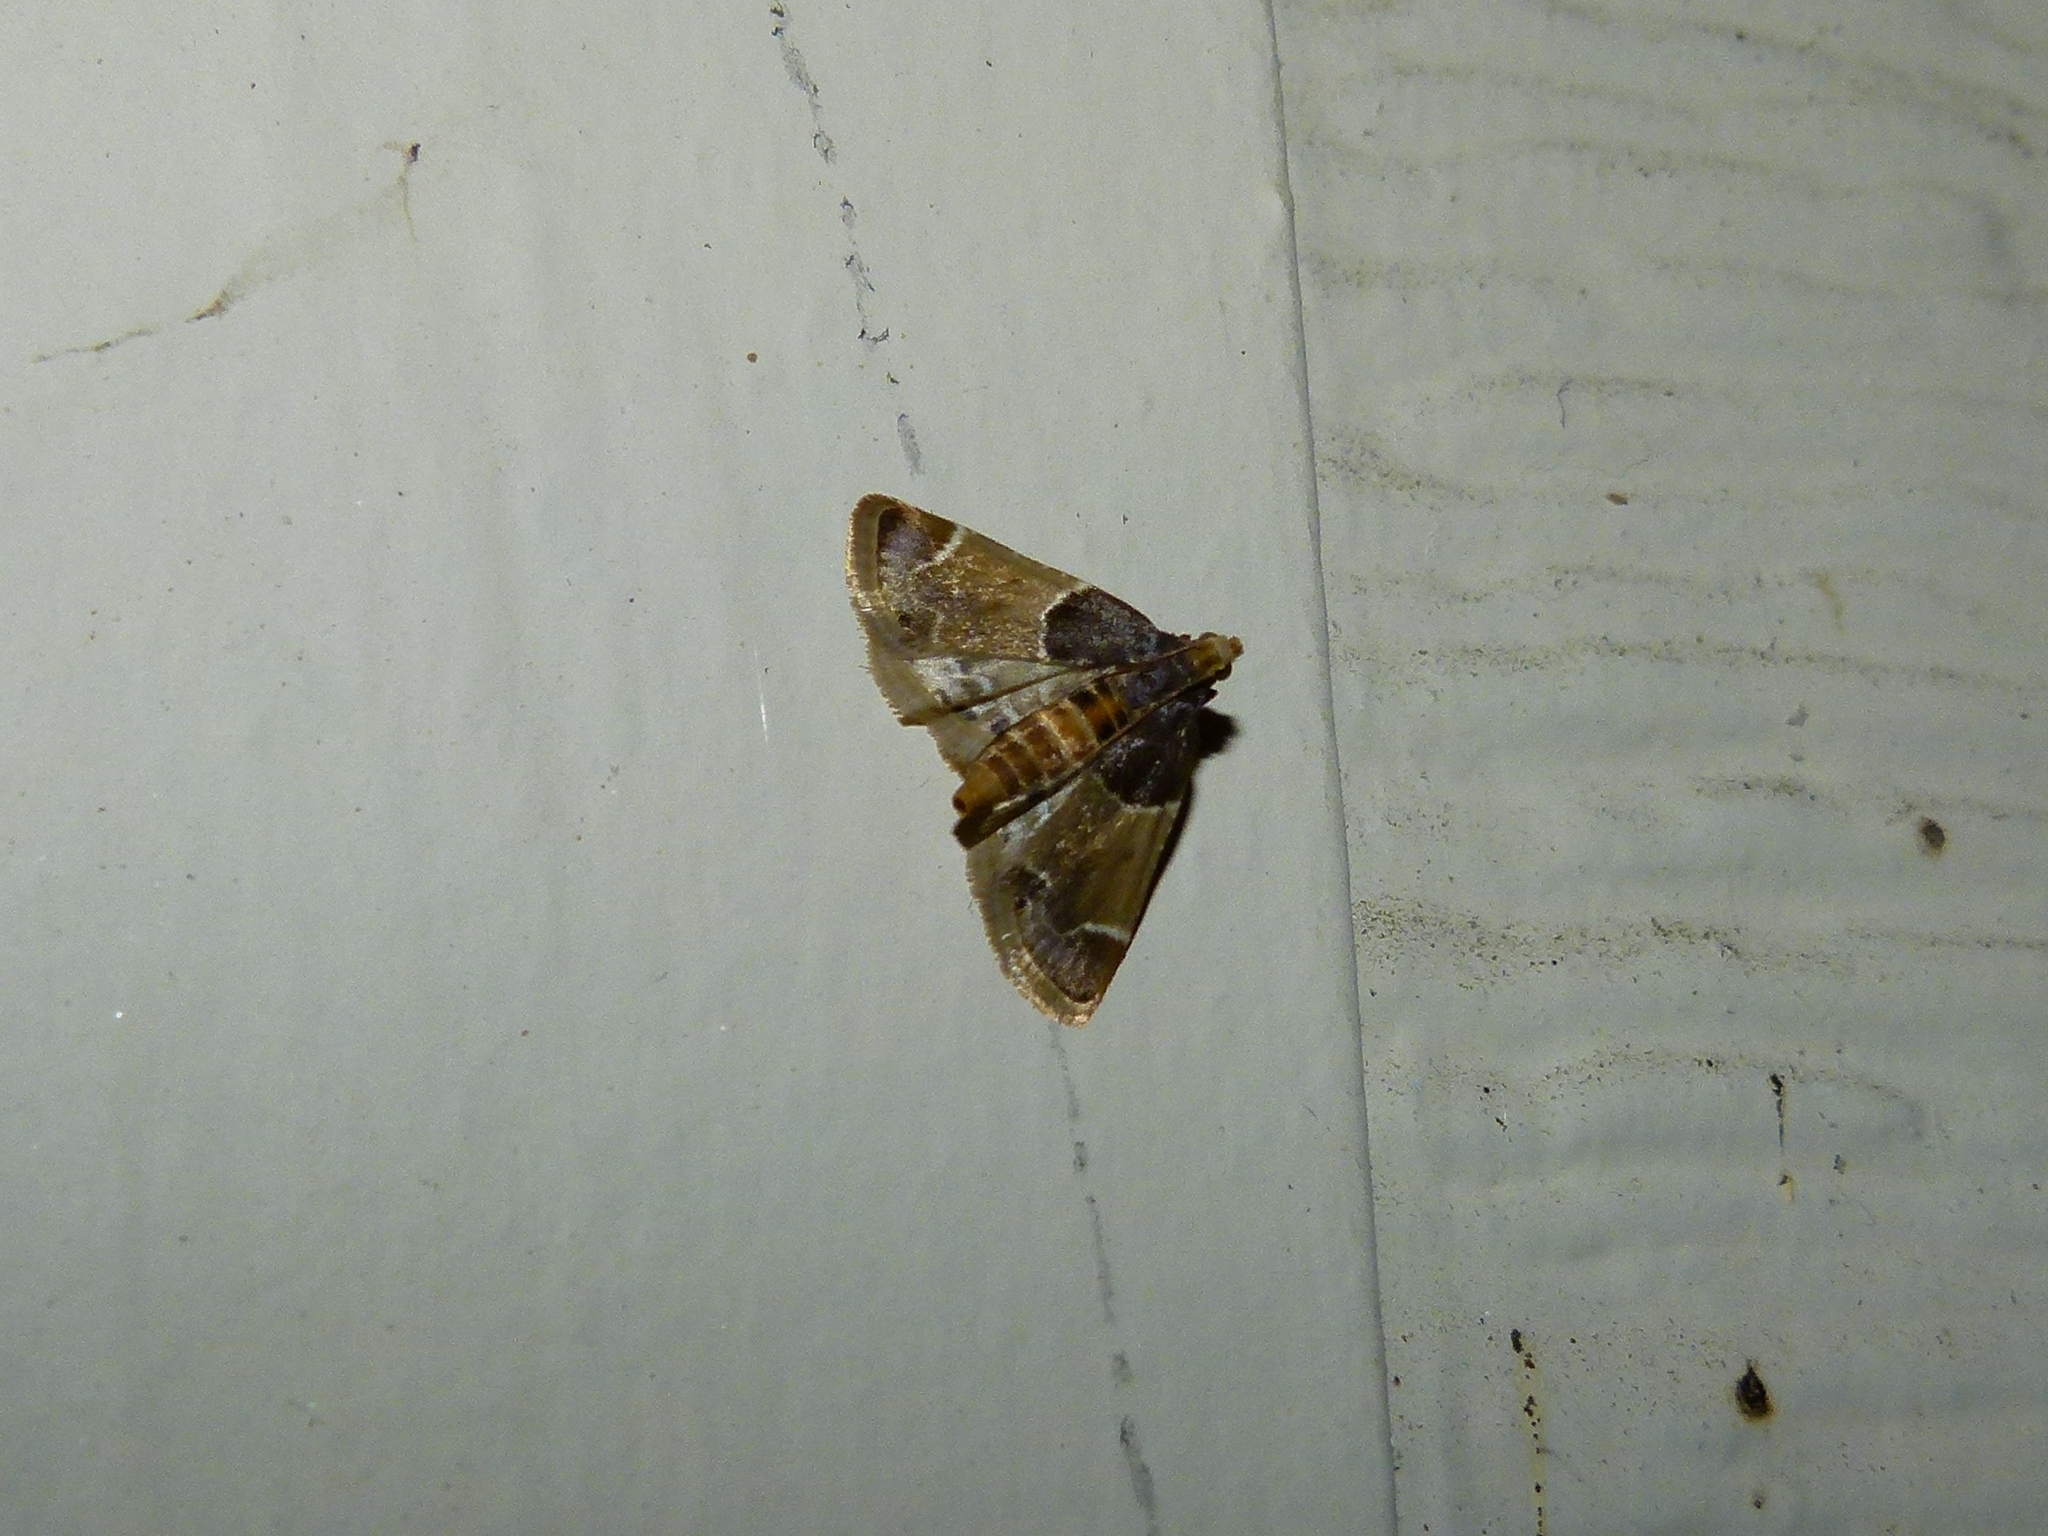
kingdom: Animalia
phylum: Arthropoda
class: Insecta
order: Lepidoptera
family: Pyralidae
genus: Pyralis
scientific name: Pyralis farinalis
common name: Meal moth
